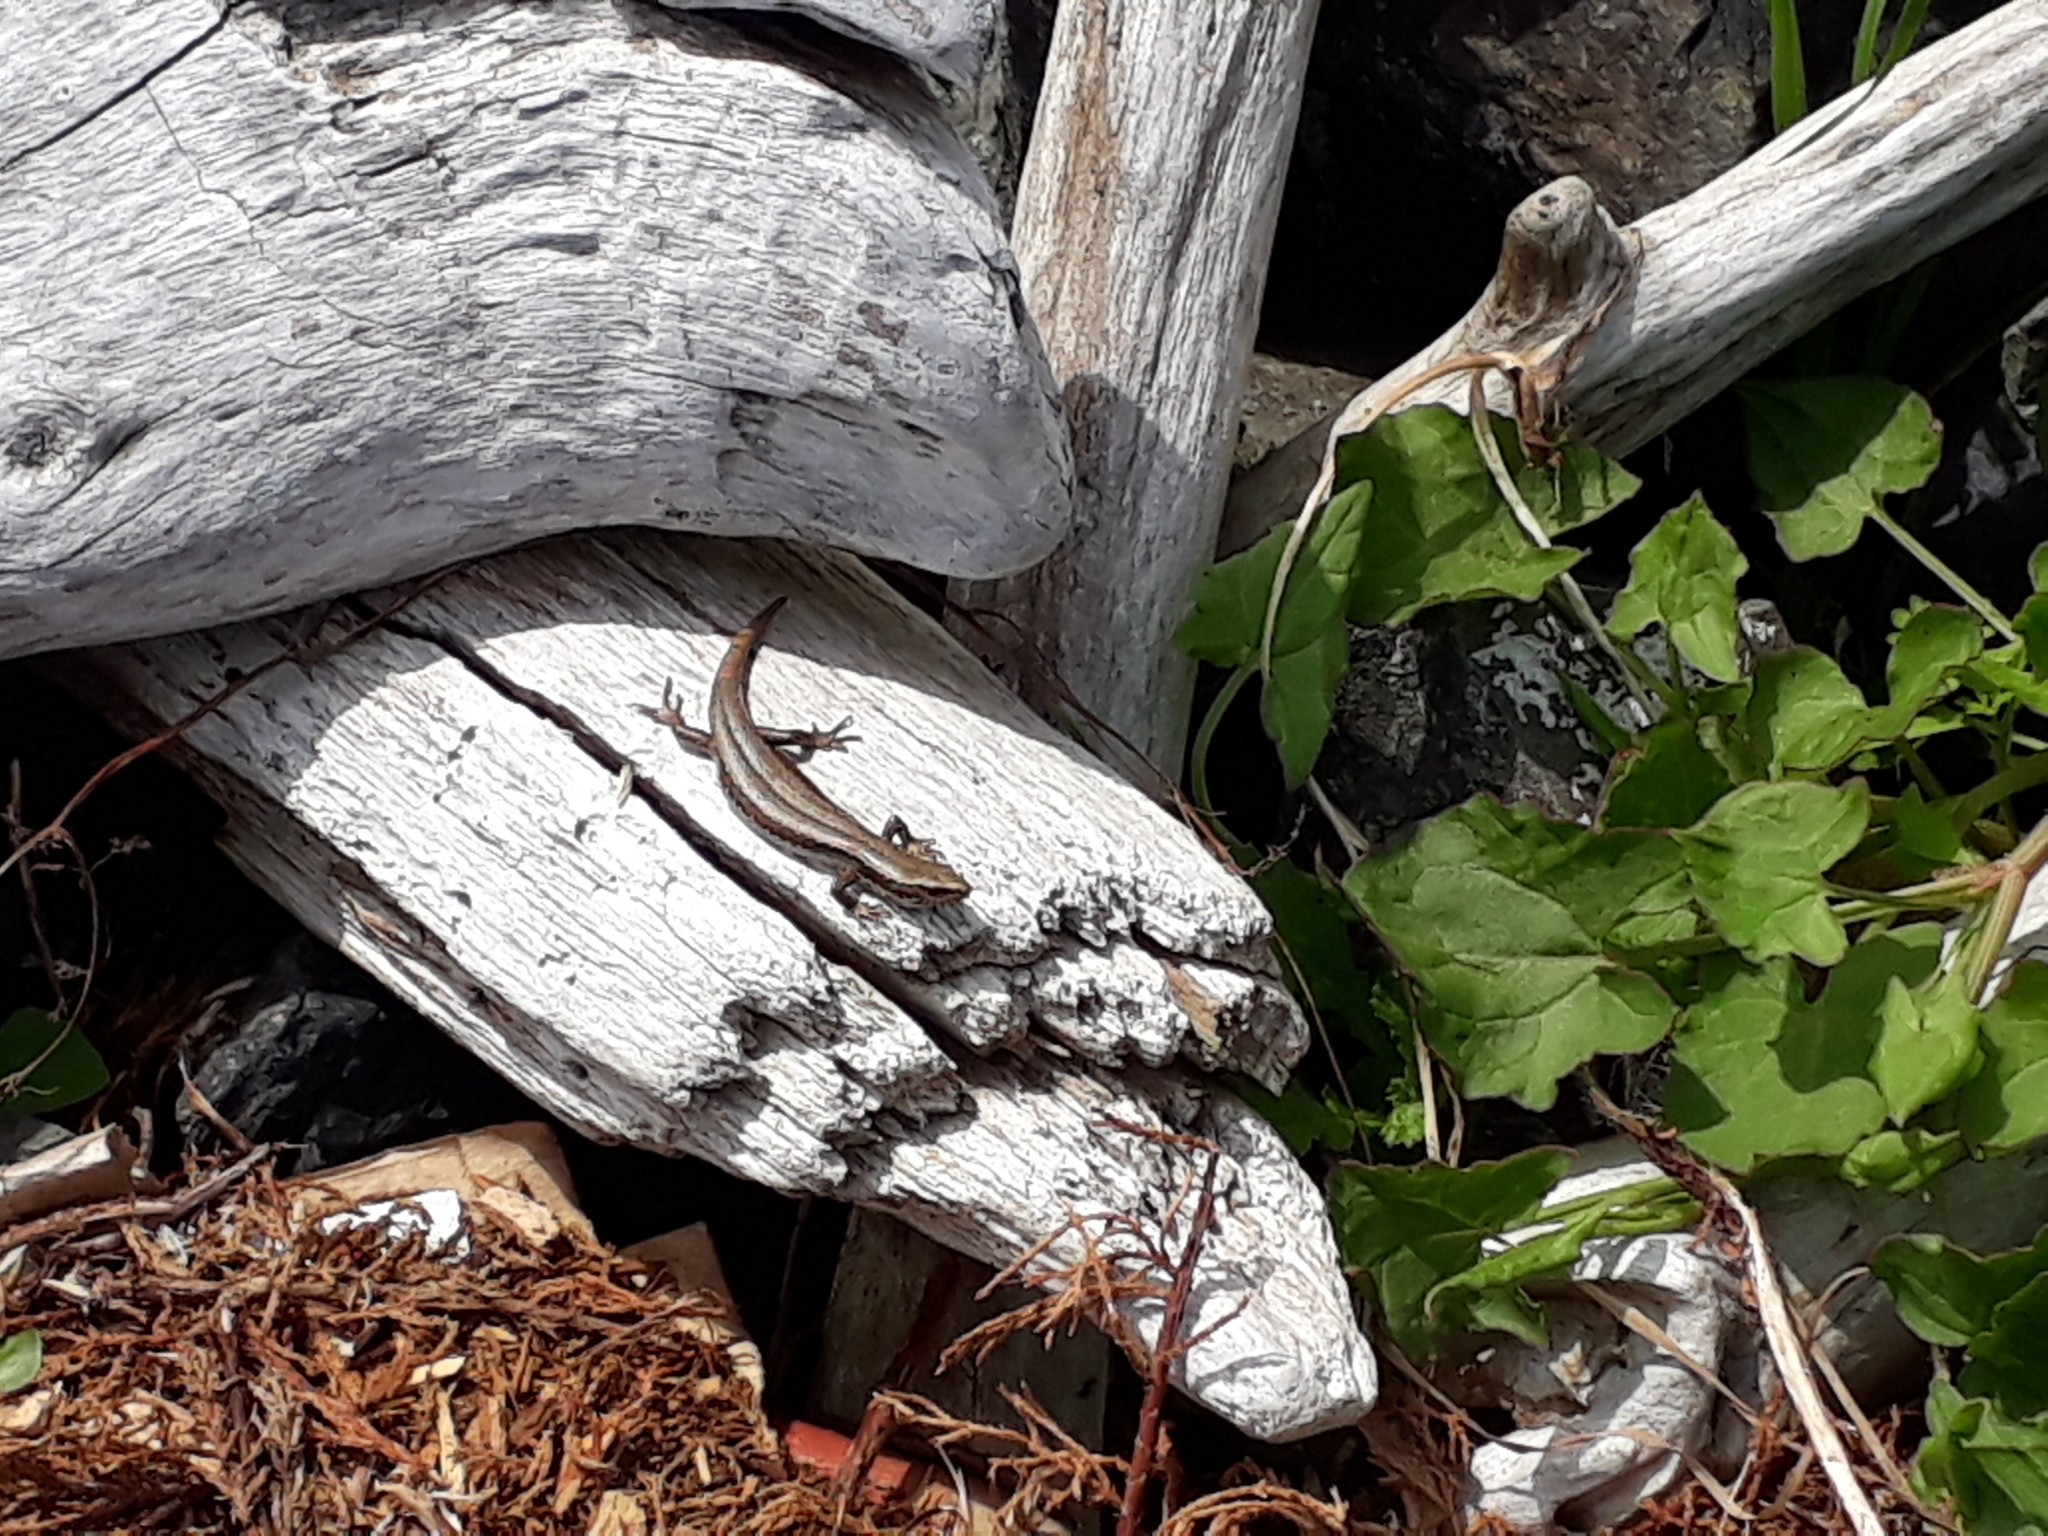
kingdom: Animalia
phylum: Chordata
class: Squamata
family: Scincidae
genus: Oligosoma
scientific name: Oligosoma polychroma
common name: Common new zealand skink
